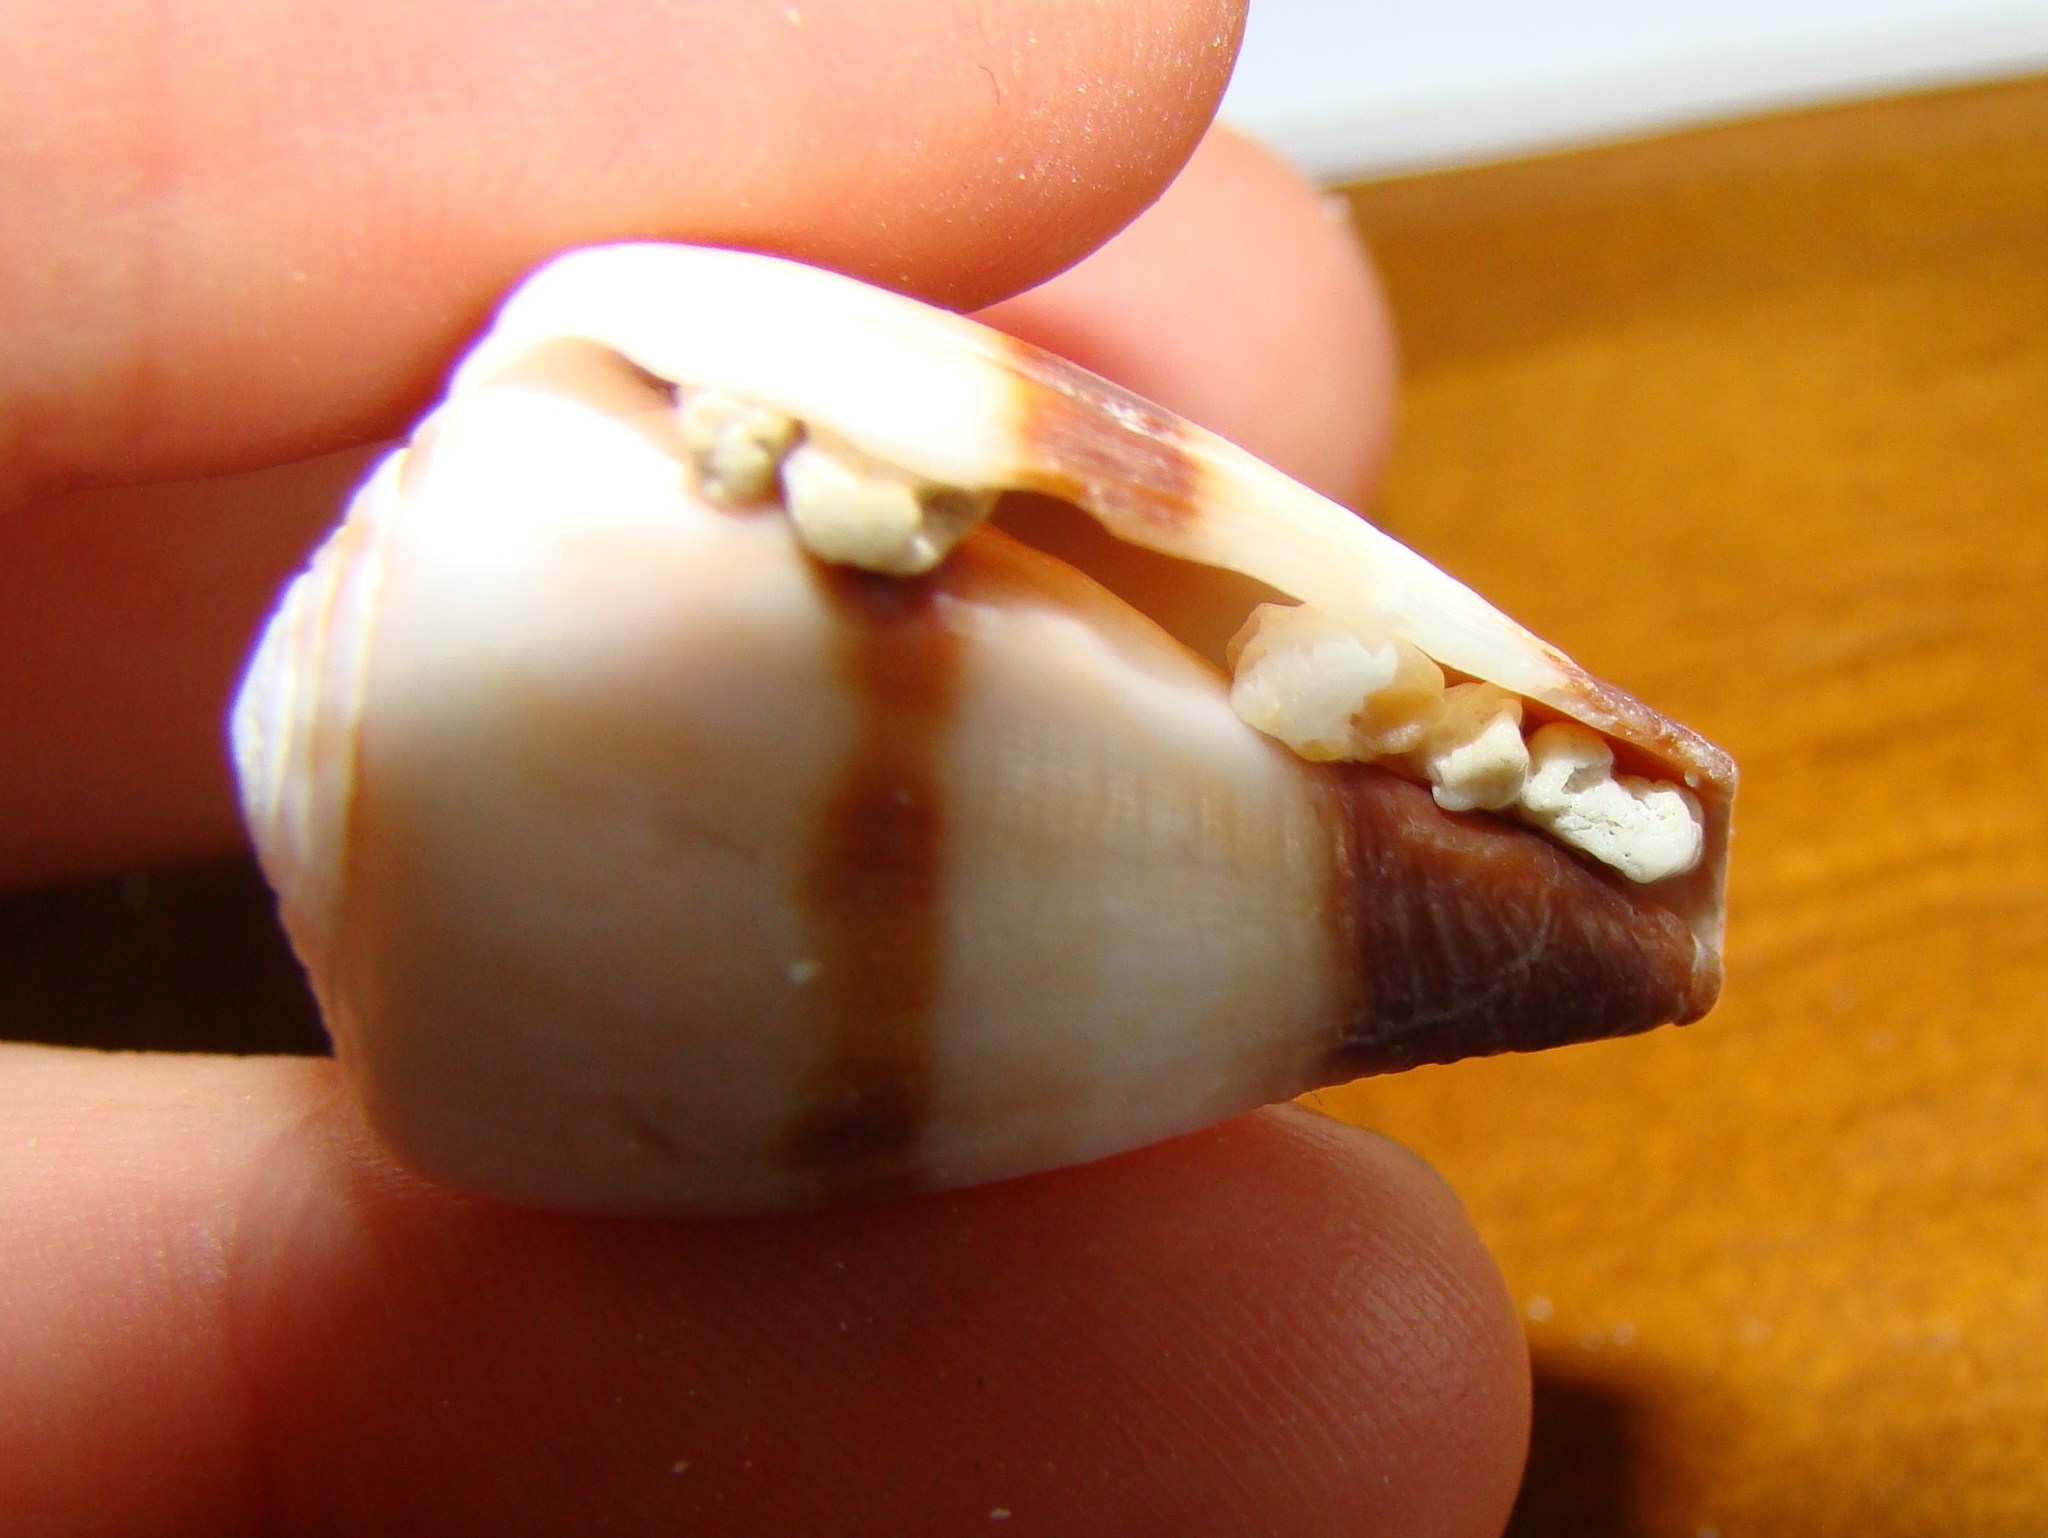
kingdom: Animalia
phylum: Mollusca
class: Gastropoda
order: Neogastropoda
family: Conidae
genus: Conus
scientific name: Conus miles
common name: Soldier cone
